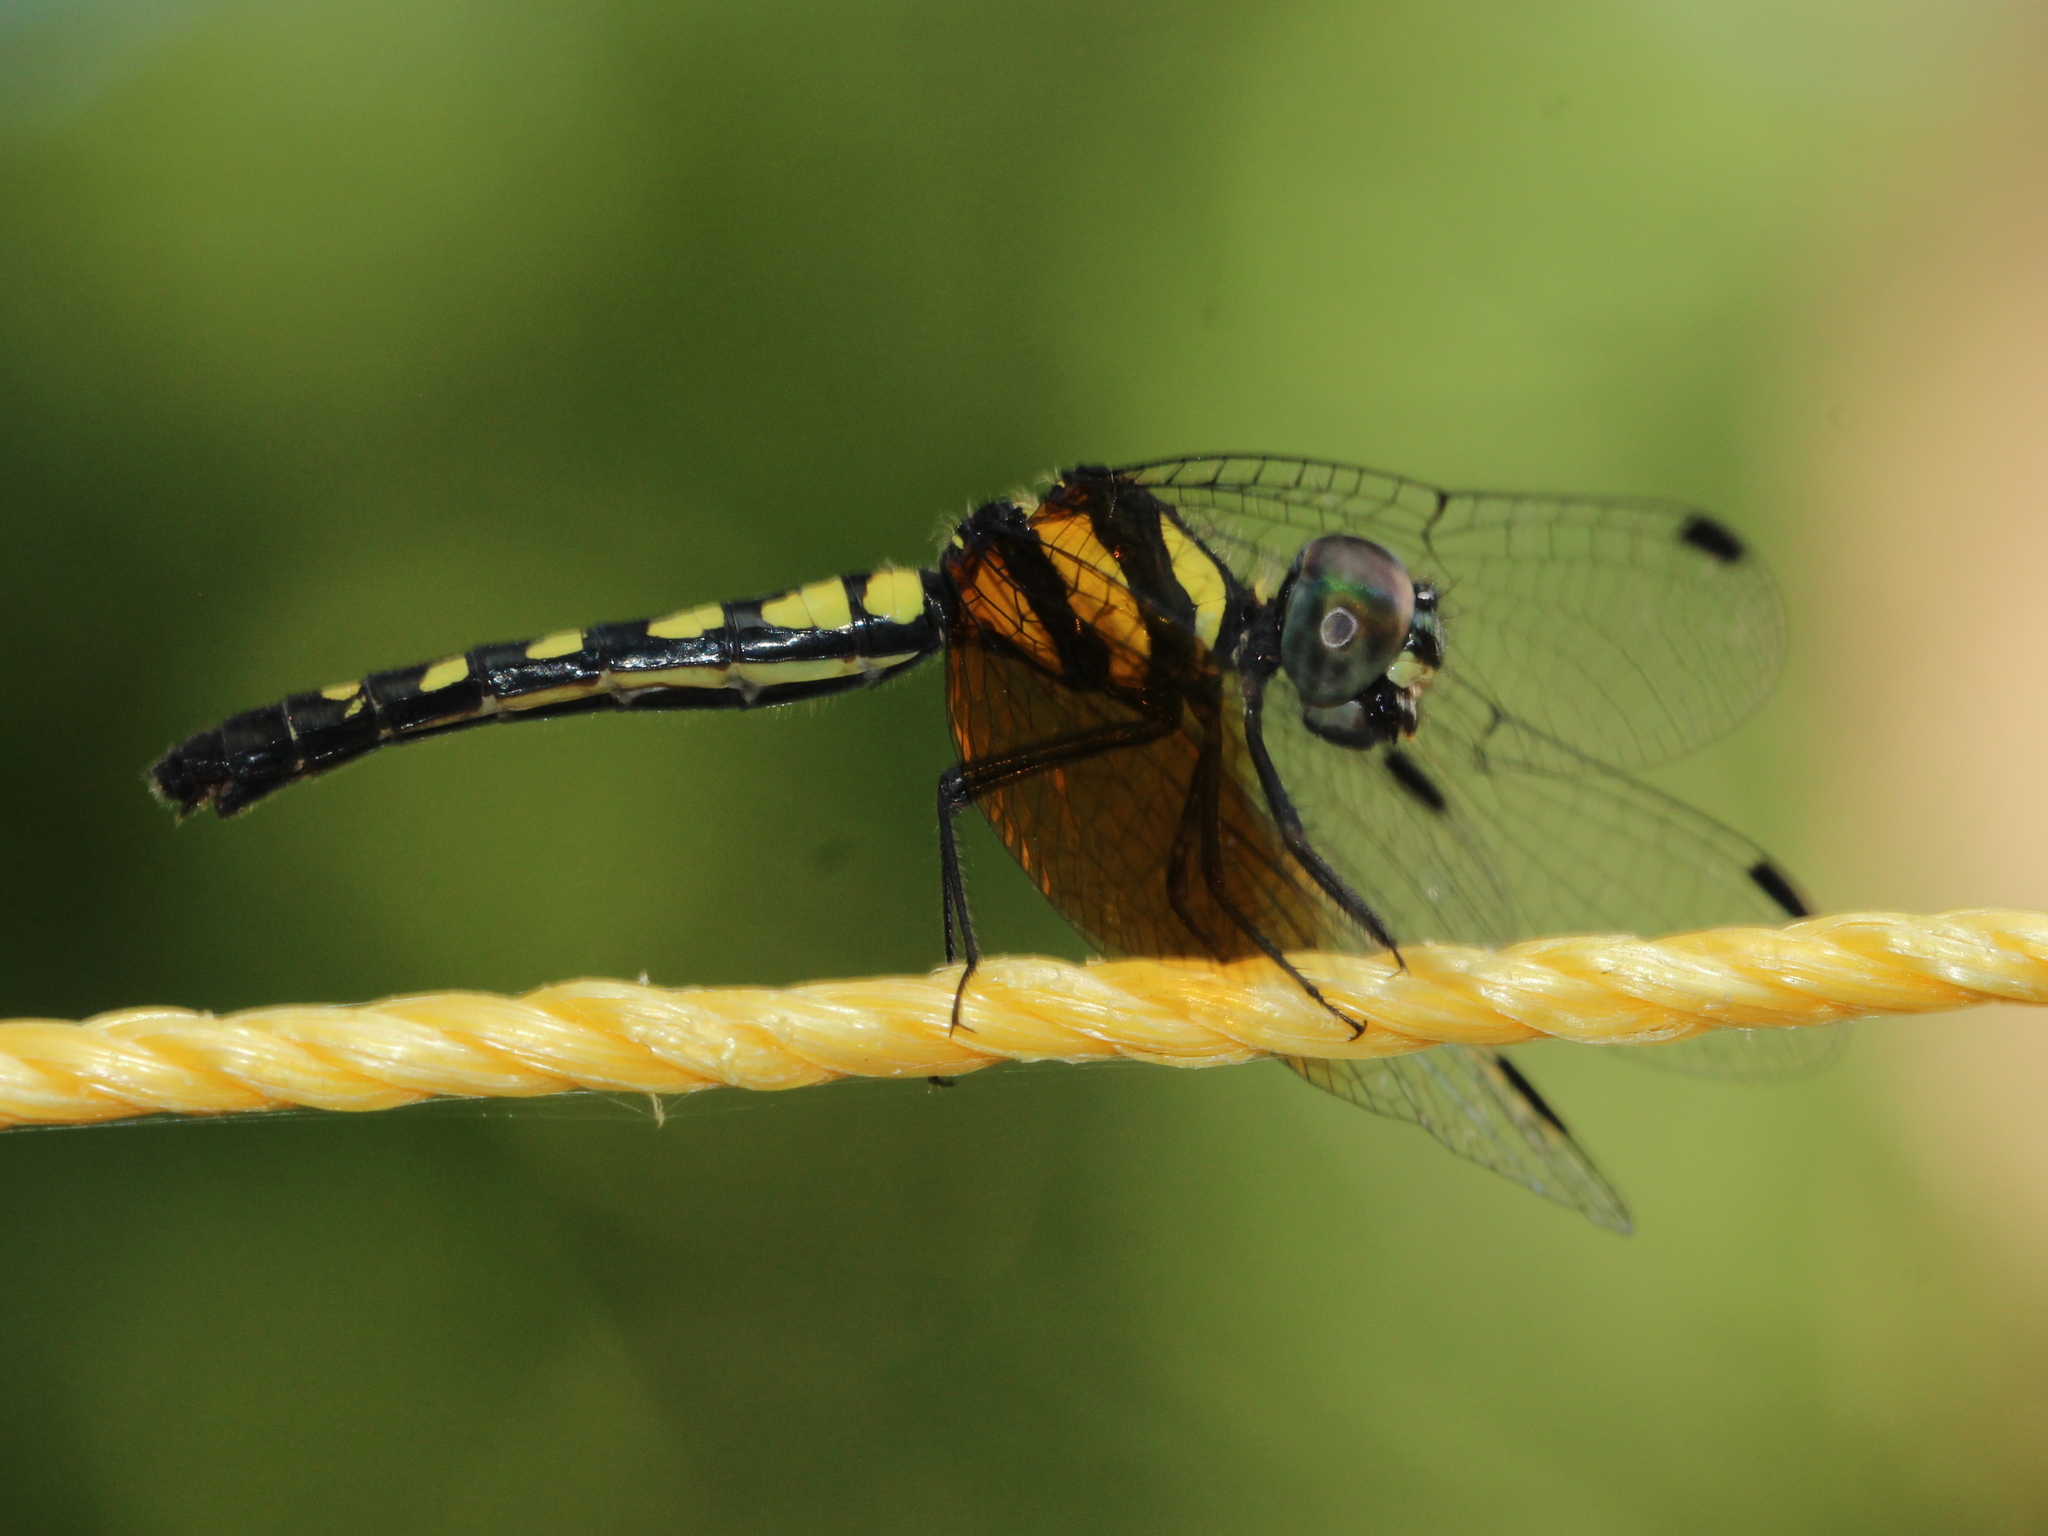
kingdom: Animalia
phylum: Arthropoda
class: Insecta
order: Odonata
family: Libellulidae
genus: Tetrathemis
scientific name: Tetrathemis platyptera
